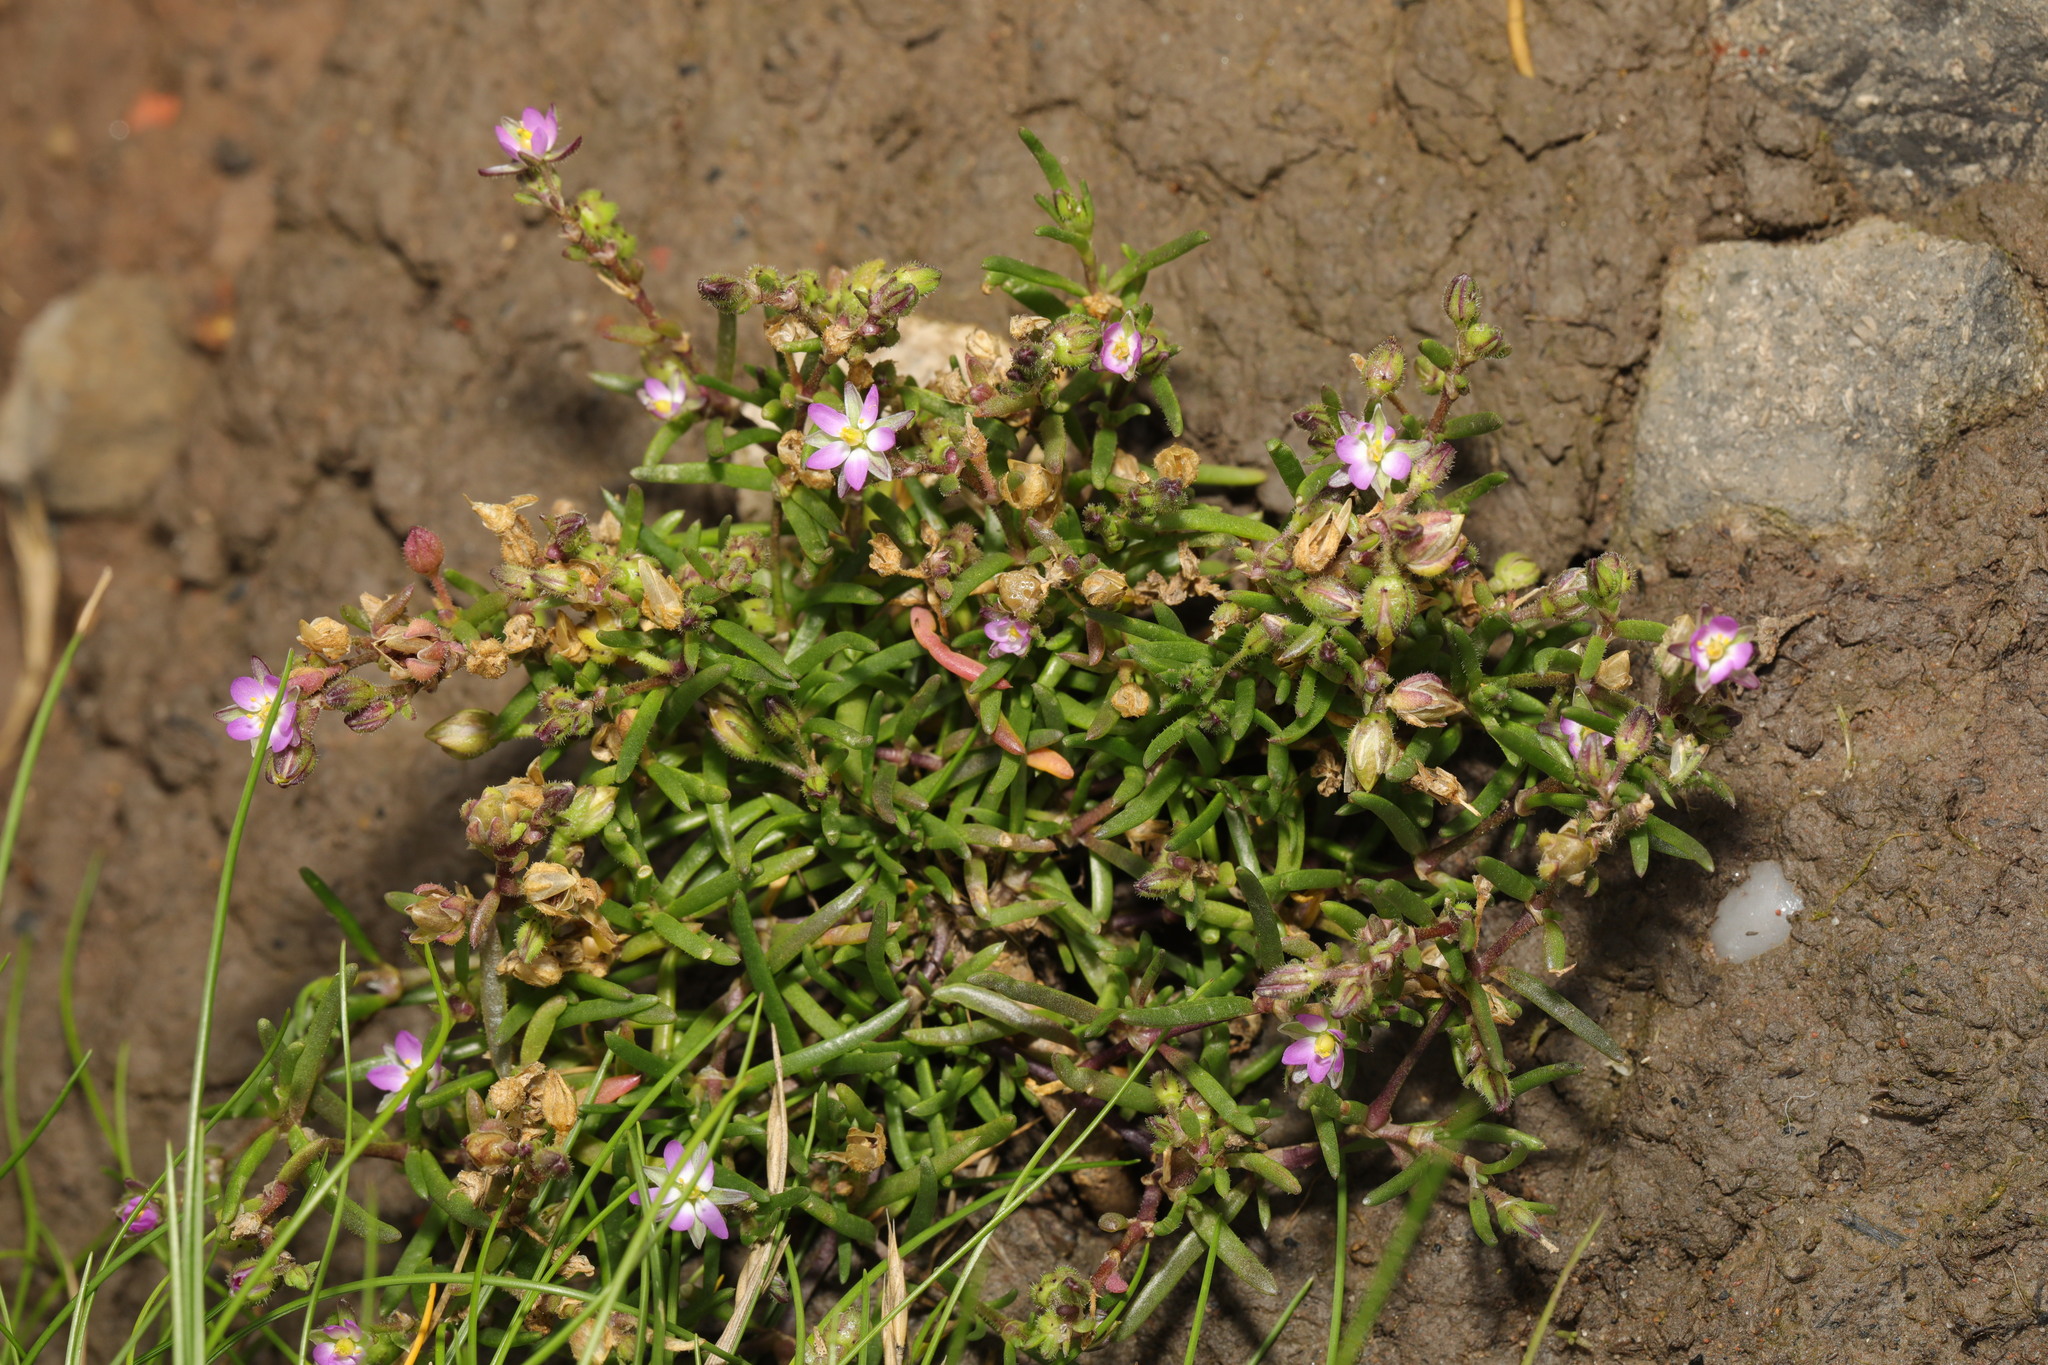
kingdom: Plantae
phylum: Tracheophyta
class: Magnoliopsida
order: Caryophyllales
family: Caryophyllaceae
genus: Spergularia
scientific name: Spergularia marina
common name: Lesser sea-spurrey
